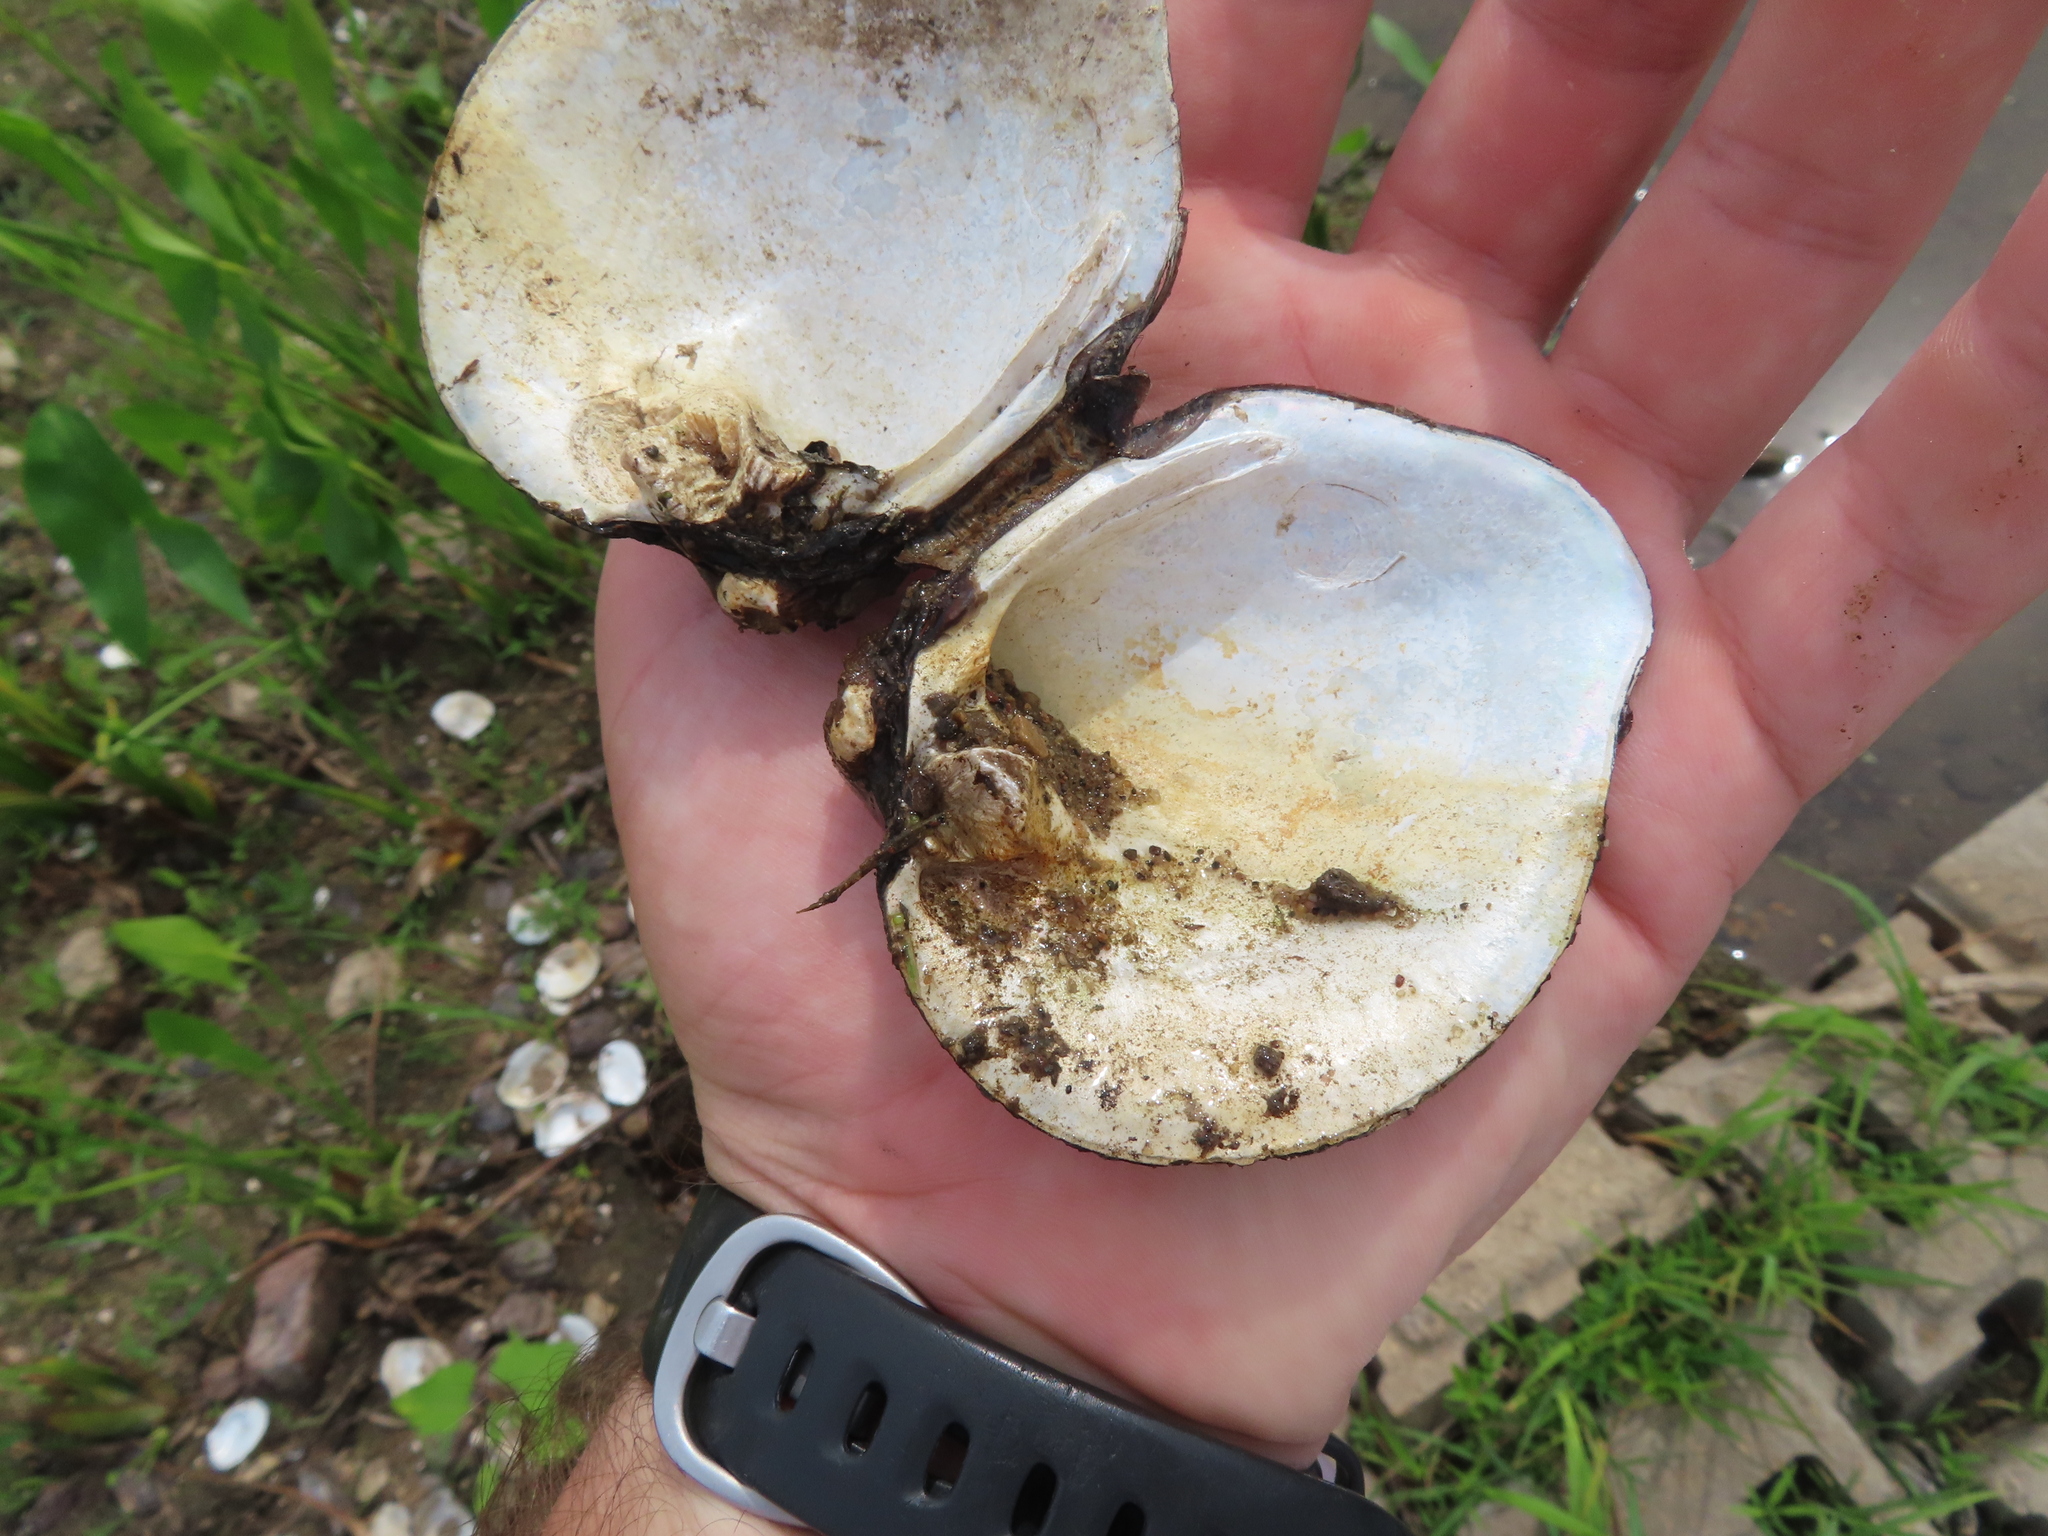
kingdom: Animalia
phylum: Mollusca
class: Bivalvia
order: Unionida
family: Unionidae
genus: Quadrula
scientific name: Quadrula quadrula
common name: Mapleleaf
